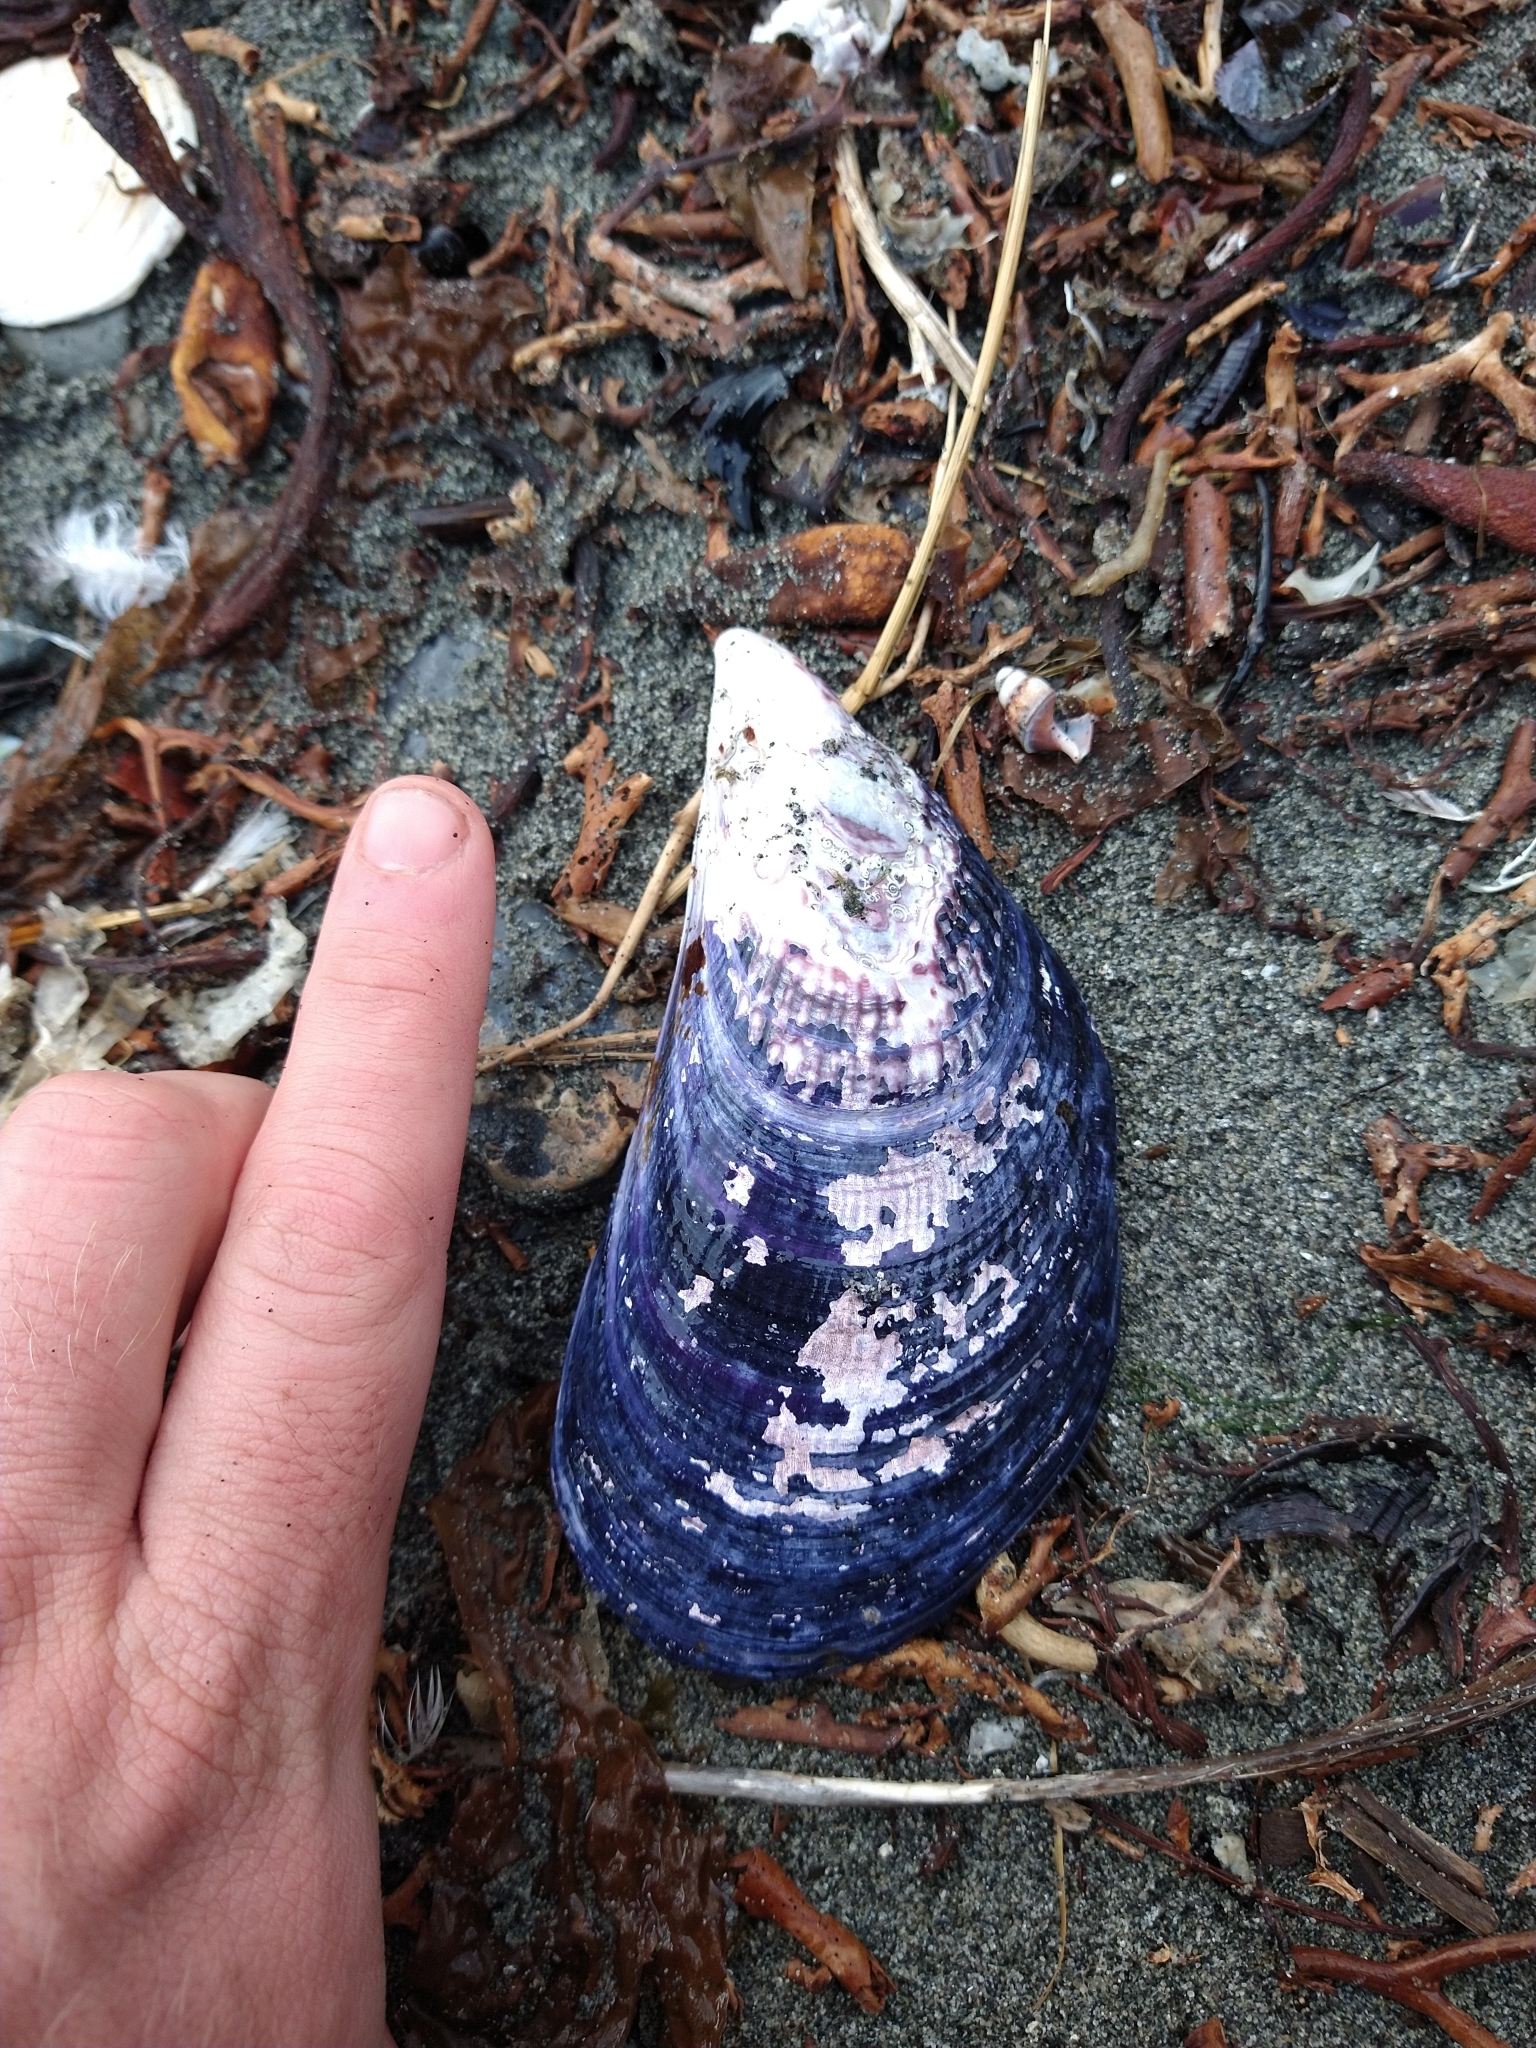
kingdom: Animalia
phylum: Mollusca
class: Bivalvia
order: Mytilida
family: Mytilidae
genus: Aulacomya
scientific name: Aulacomya atra
